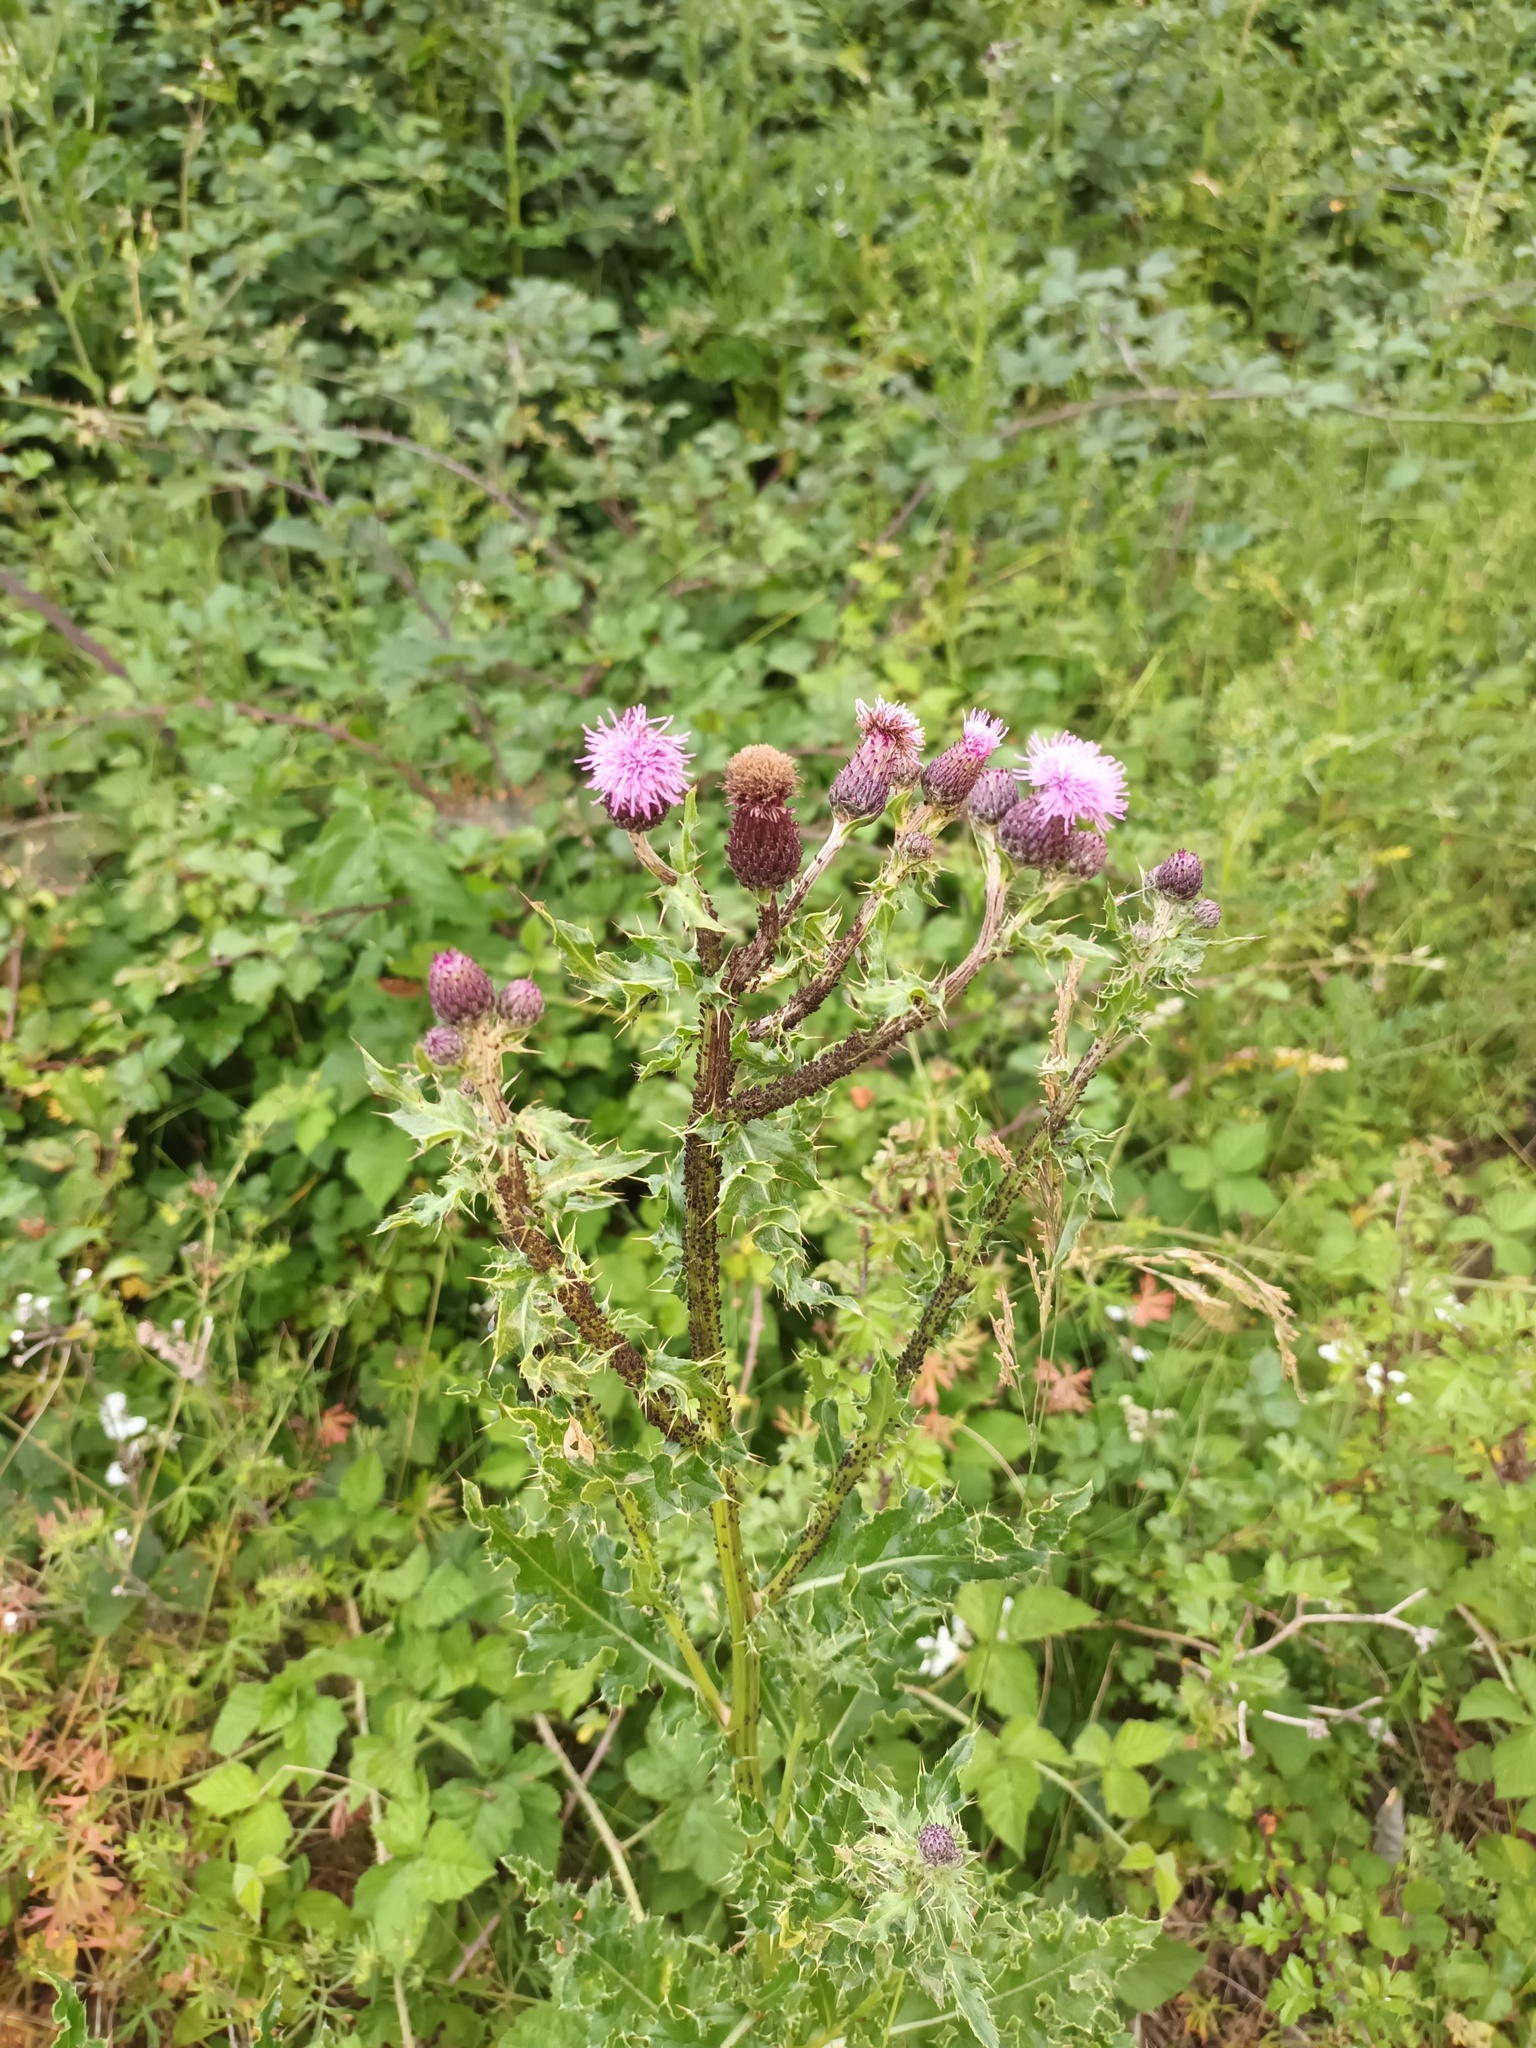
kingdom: Plantae
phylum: Tracheophyta
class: Magnoliopsida
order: Asterales
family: Asteraceae
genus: Cirsium
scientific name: Cirsium arvense
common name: Creeping thistle
